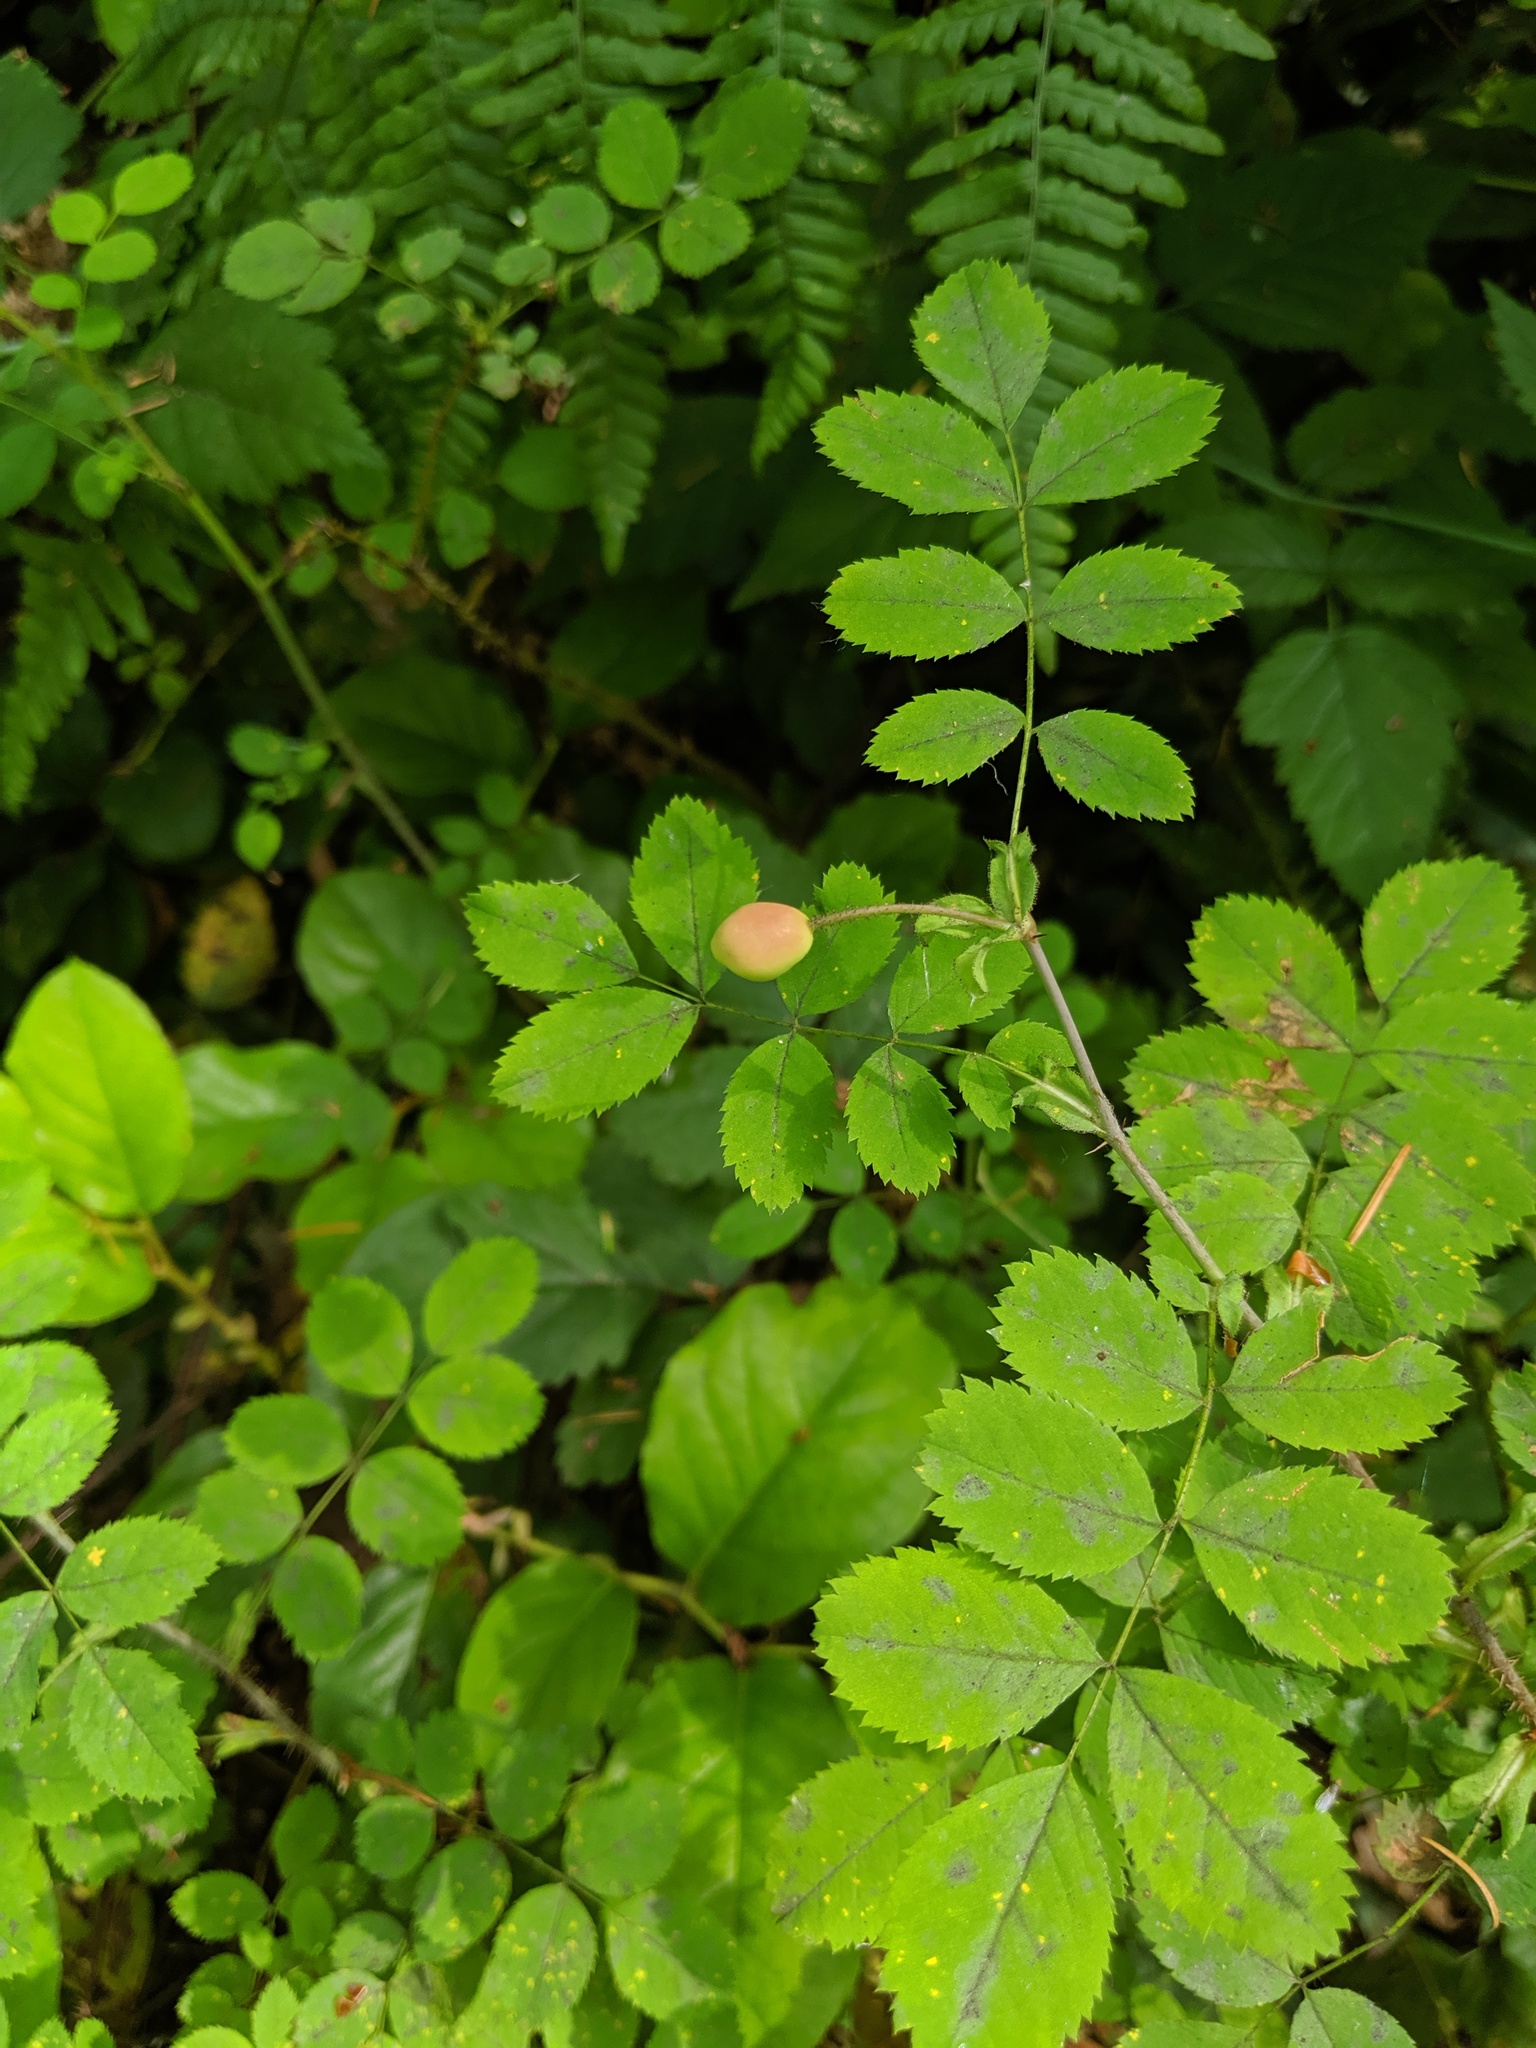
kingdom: Plantae
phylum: Tracheophyta
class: Magnoliopsida
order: Rosales
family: Rosaceae
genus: Rosa
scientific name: Rosa gymnocarpa
